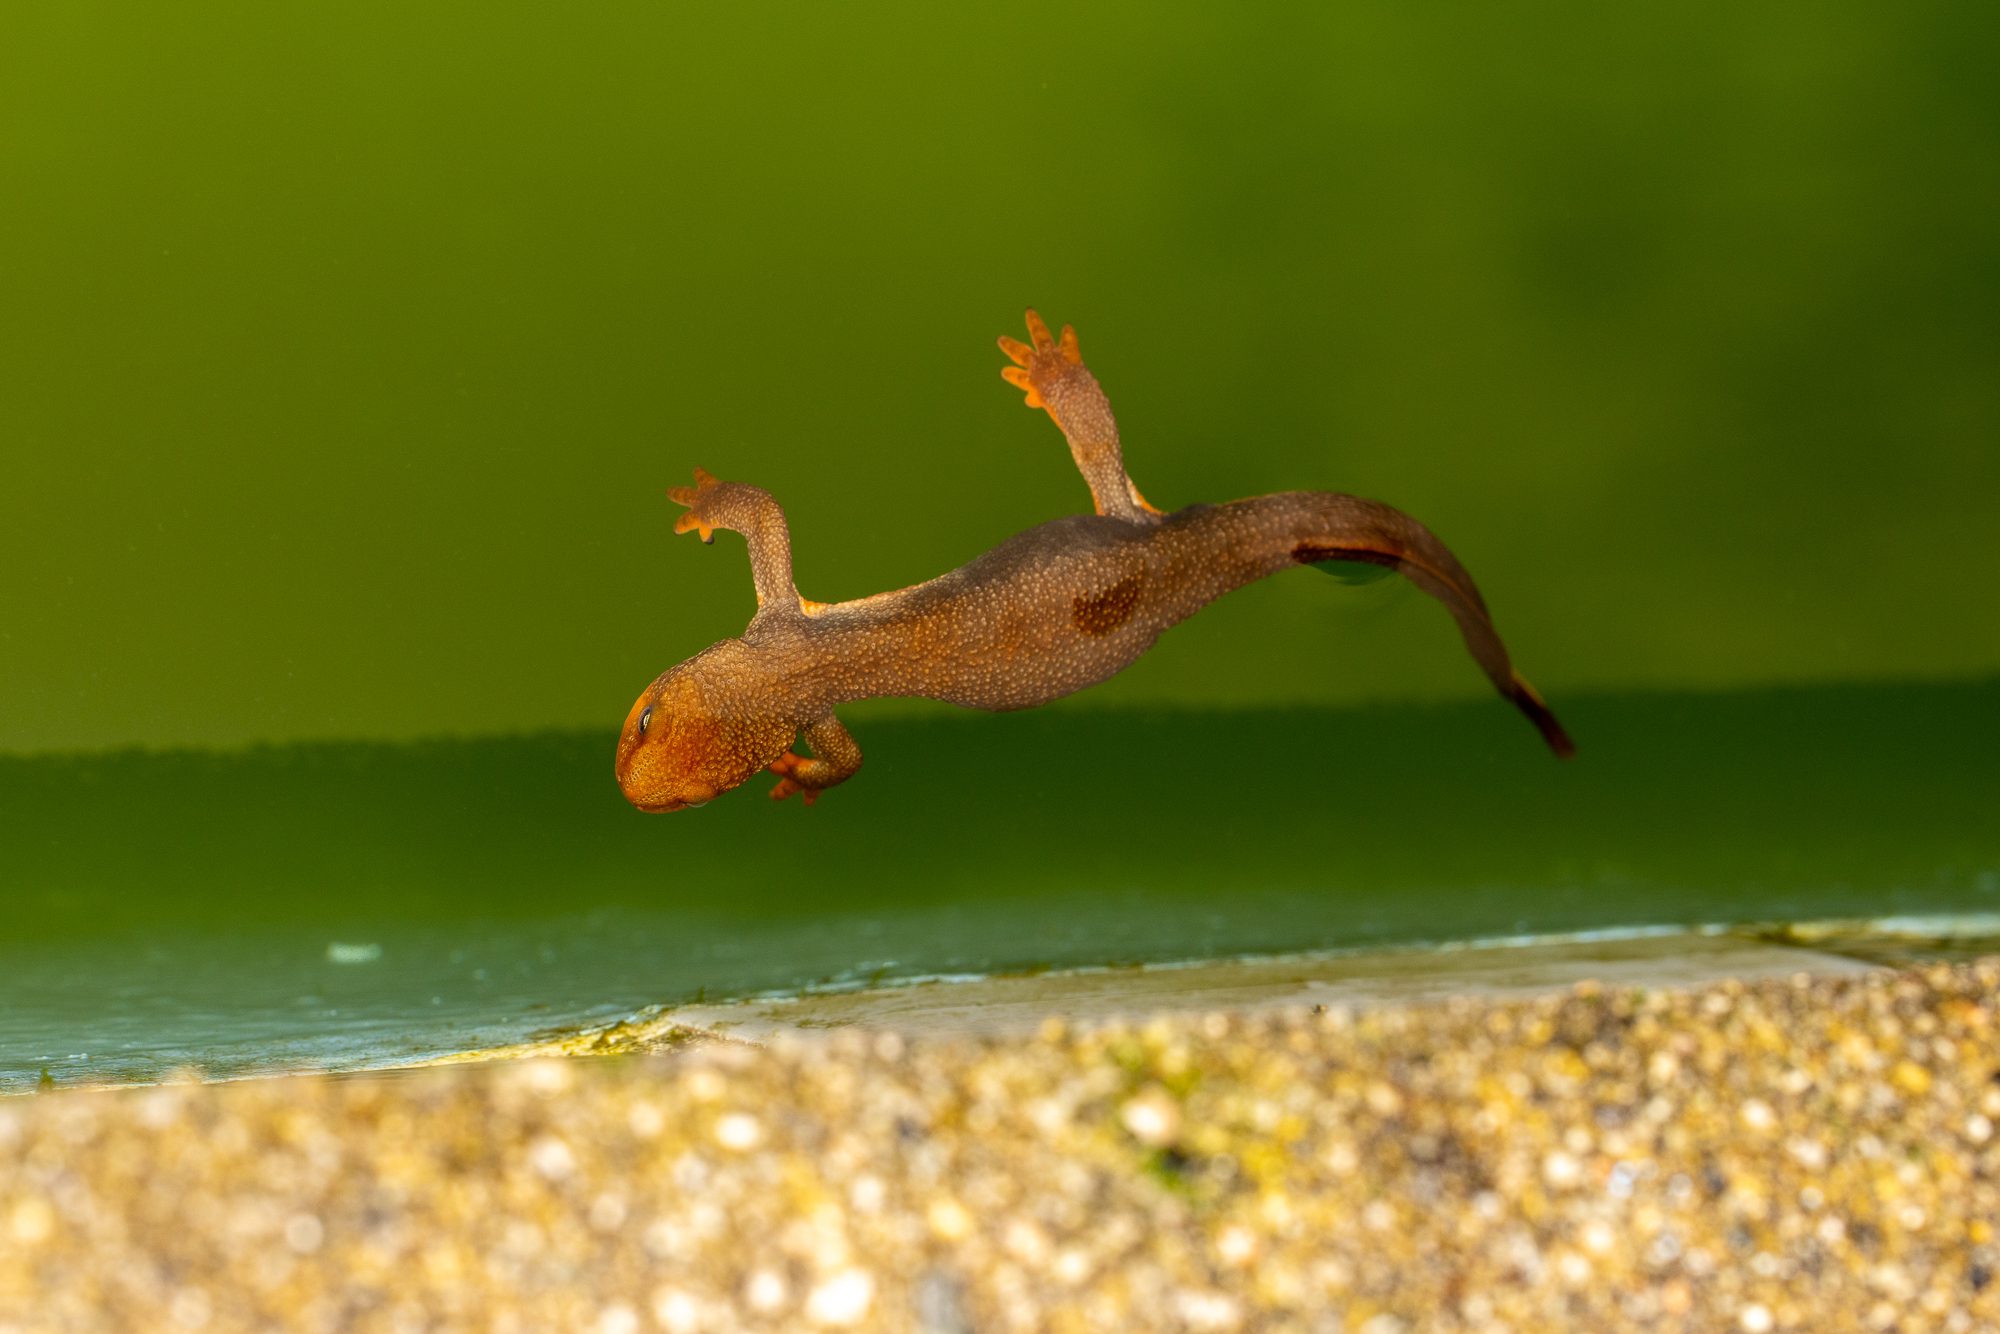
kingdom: Animalia
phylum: Chordata
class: Amphibia
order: Caudata
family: Salamandridae
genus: Taricha
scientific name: Taricha granulosa
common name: Roughskin newt
